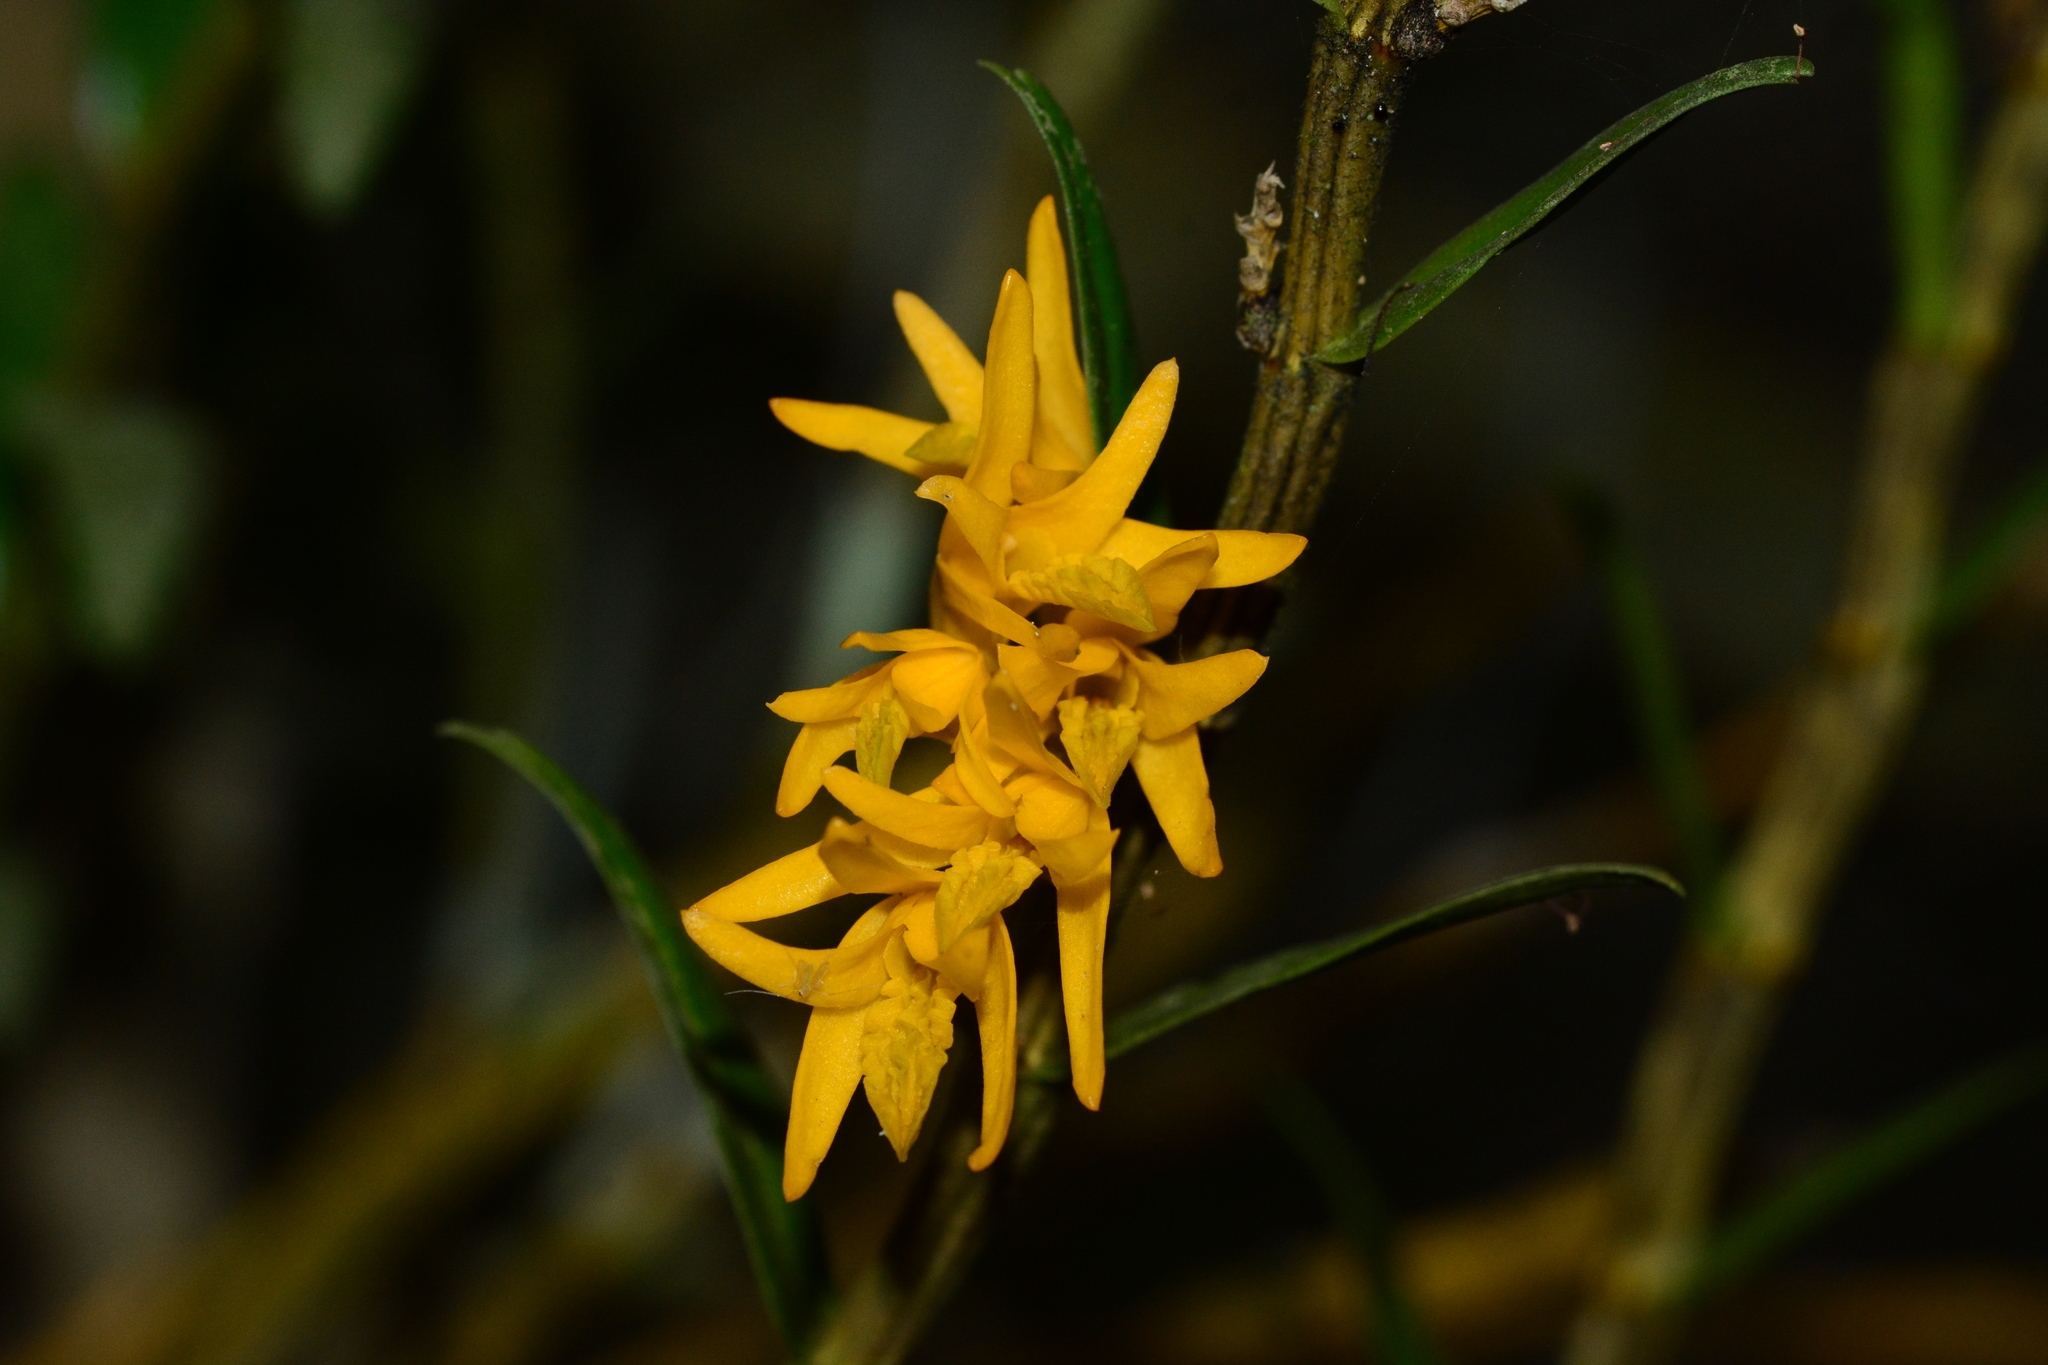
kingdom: Plantae
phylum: Tracheophyta
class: Liliopsida
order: Asparagales
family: Orchidaceae
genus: Dendrobium
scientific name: Dendrobium jerdonianum
